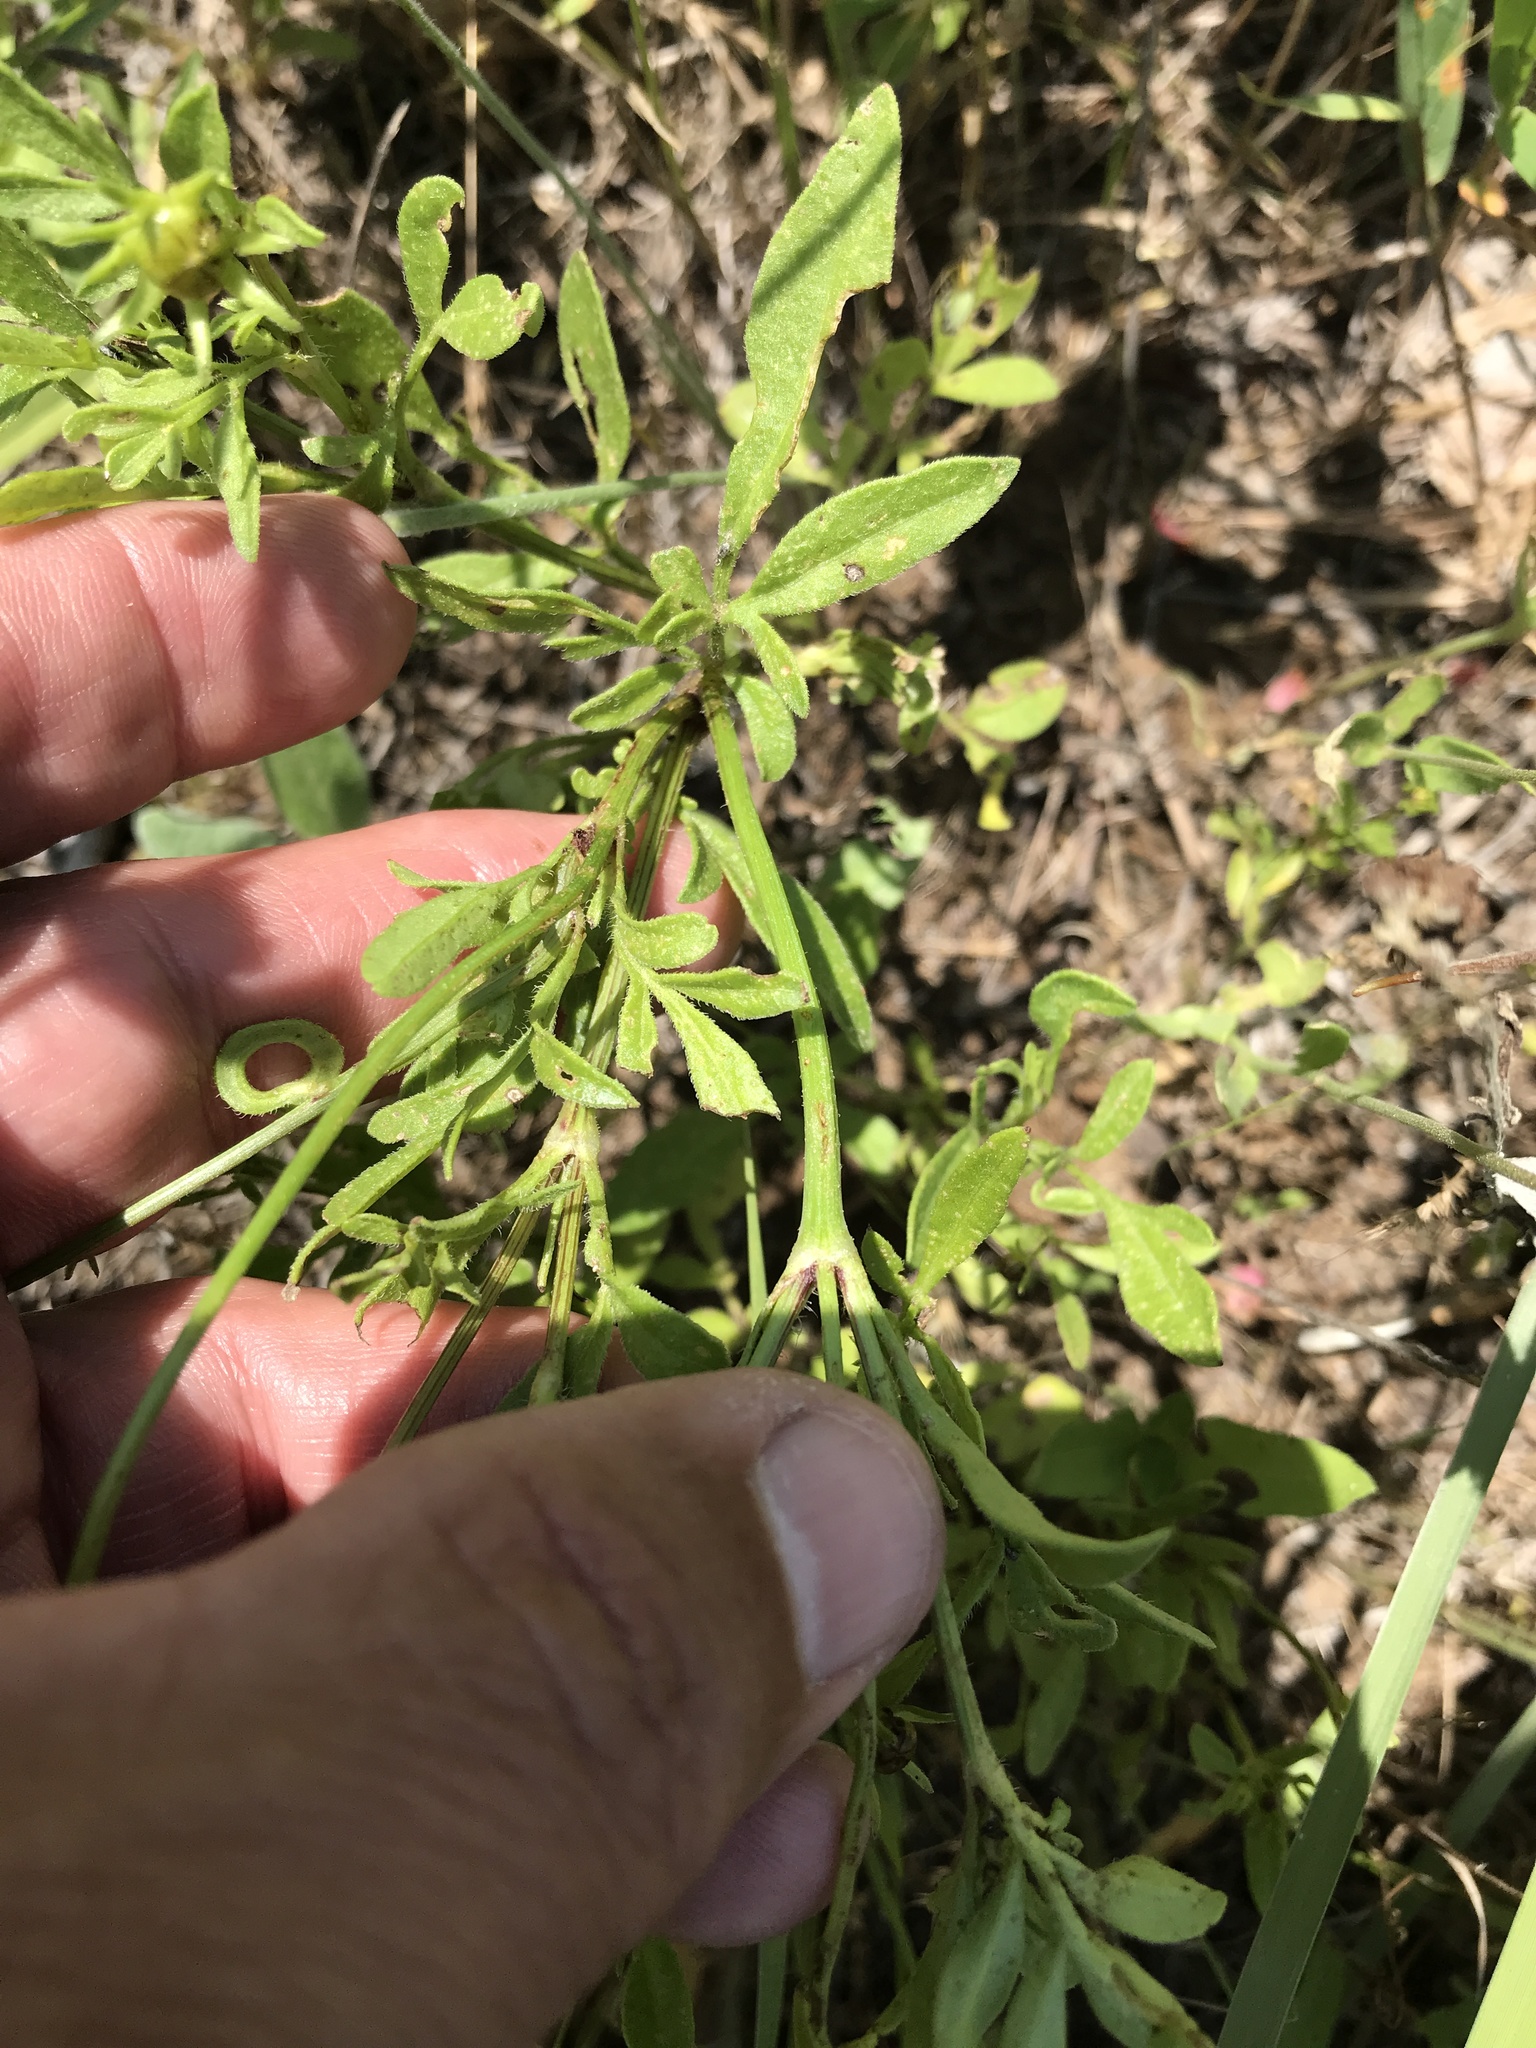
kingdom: Plantae
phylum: Tracheophyta
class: Magnoliopsida
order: Asterales
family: Asteraceae
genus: Coreopsis
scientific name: Coreopsis basalis
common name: Golden-mane coreopsis
